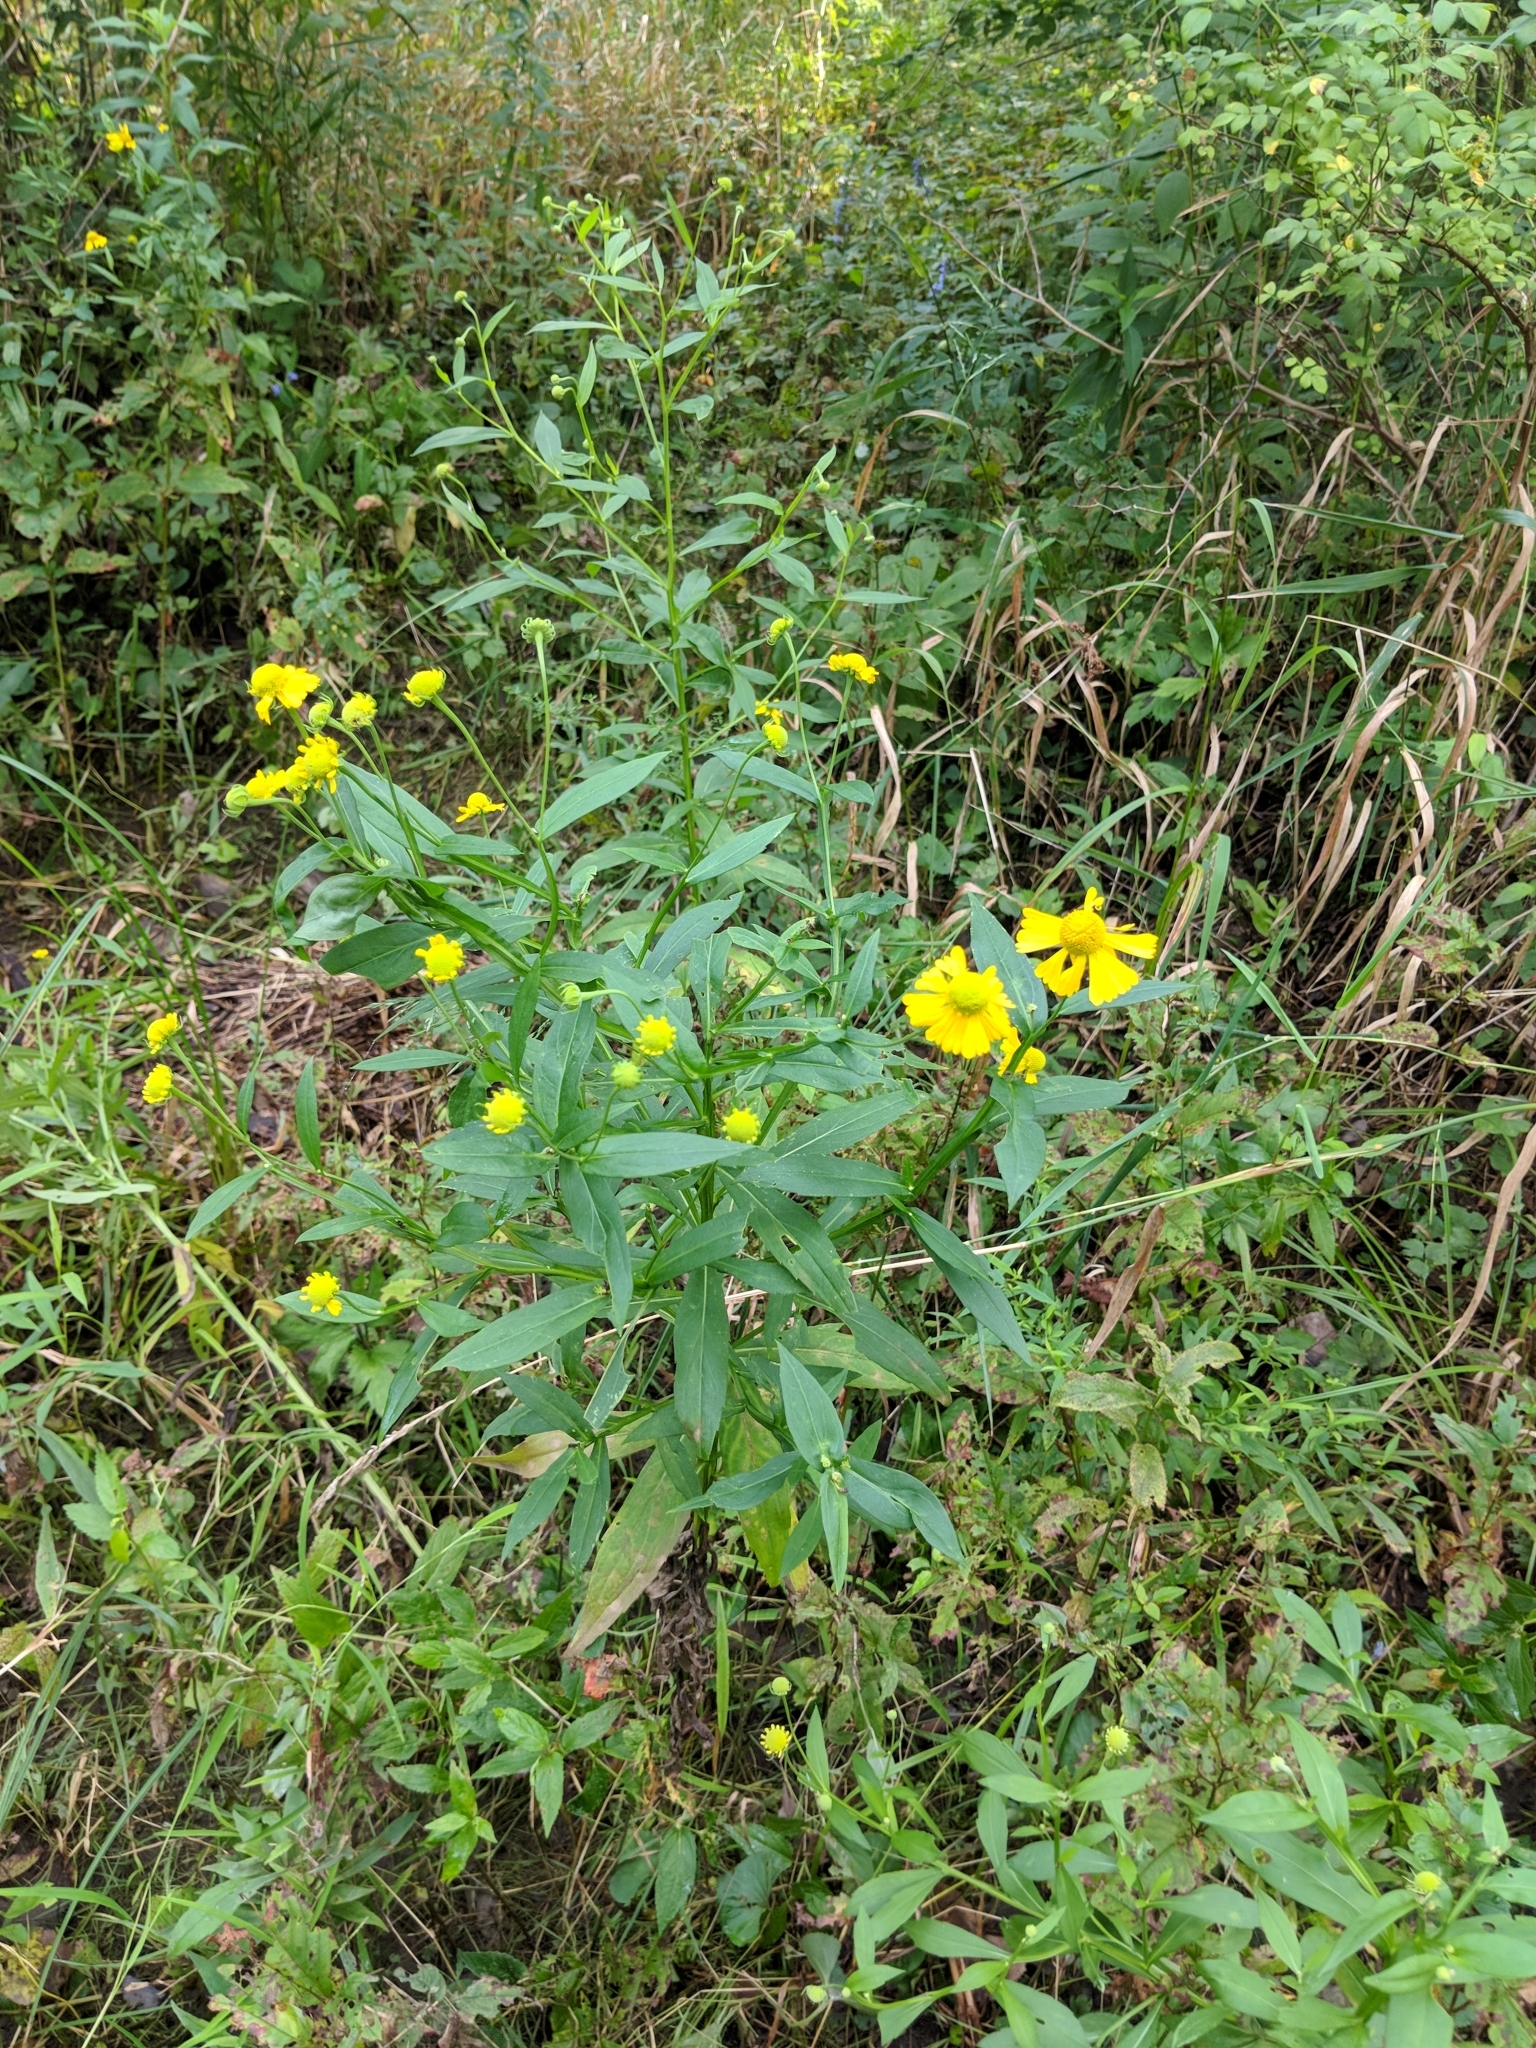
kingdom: Plantae
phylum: Tracheophyta
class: Magnoliopsida
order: Asterales
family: Asteraceae
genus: Helenium
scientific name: Helenium autumnale
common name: Sneezeweed
